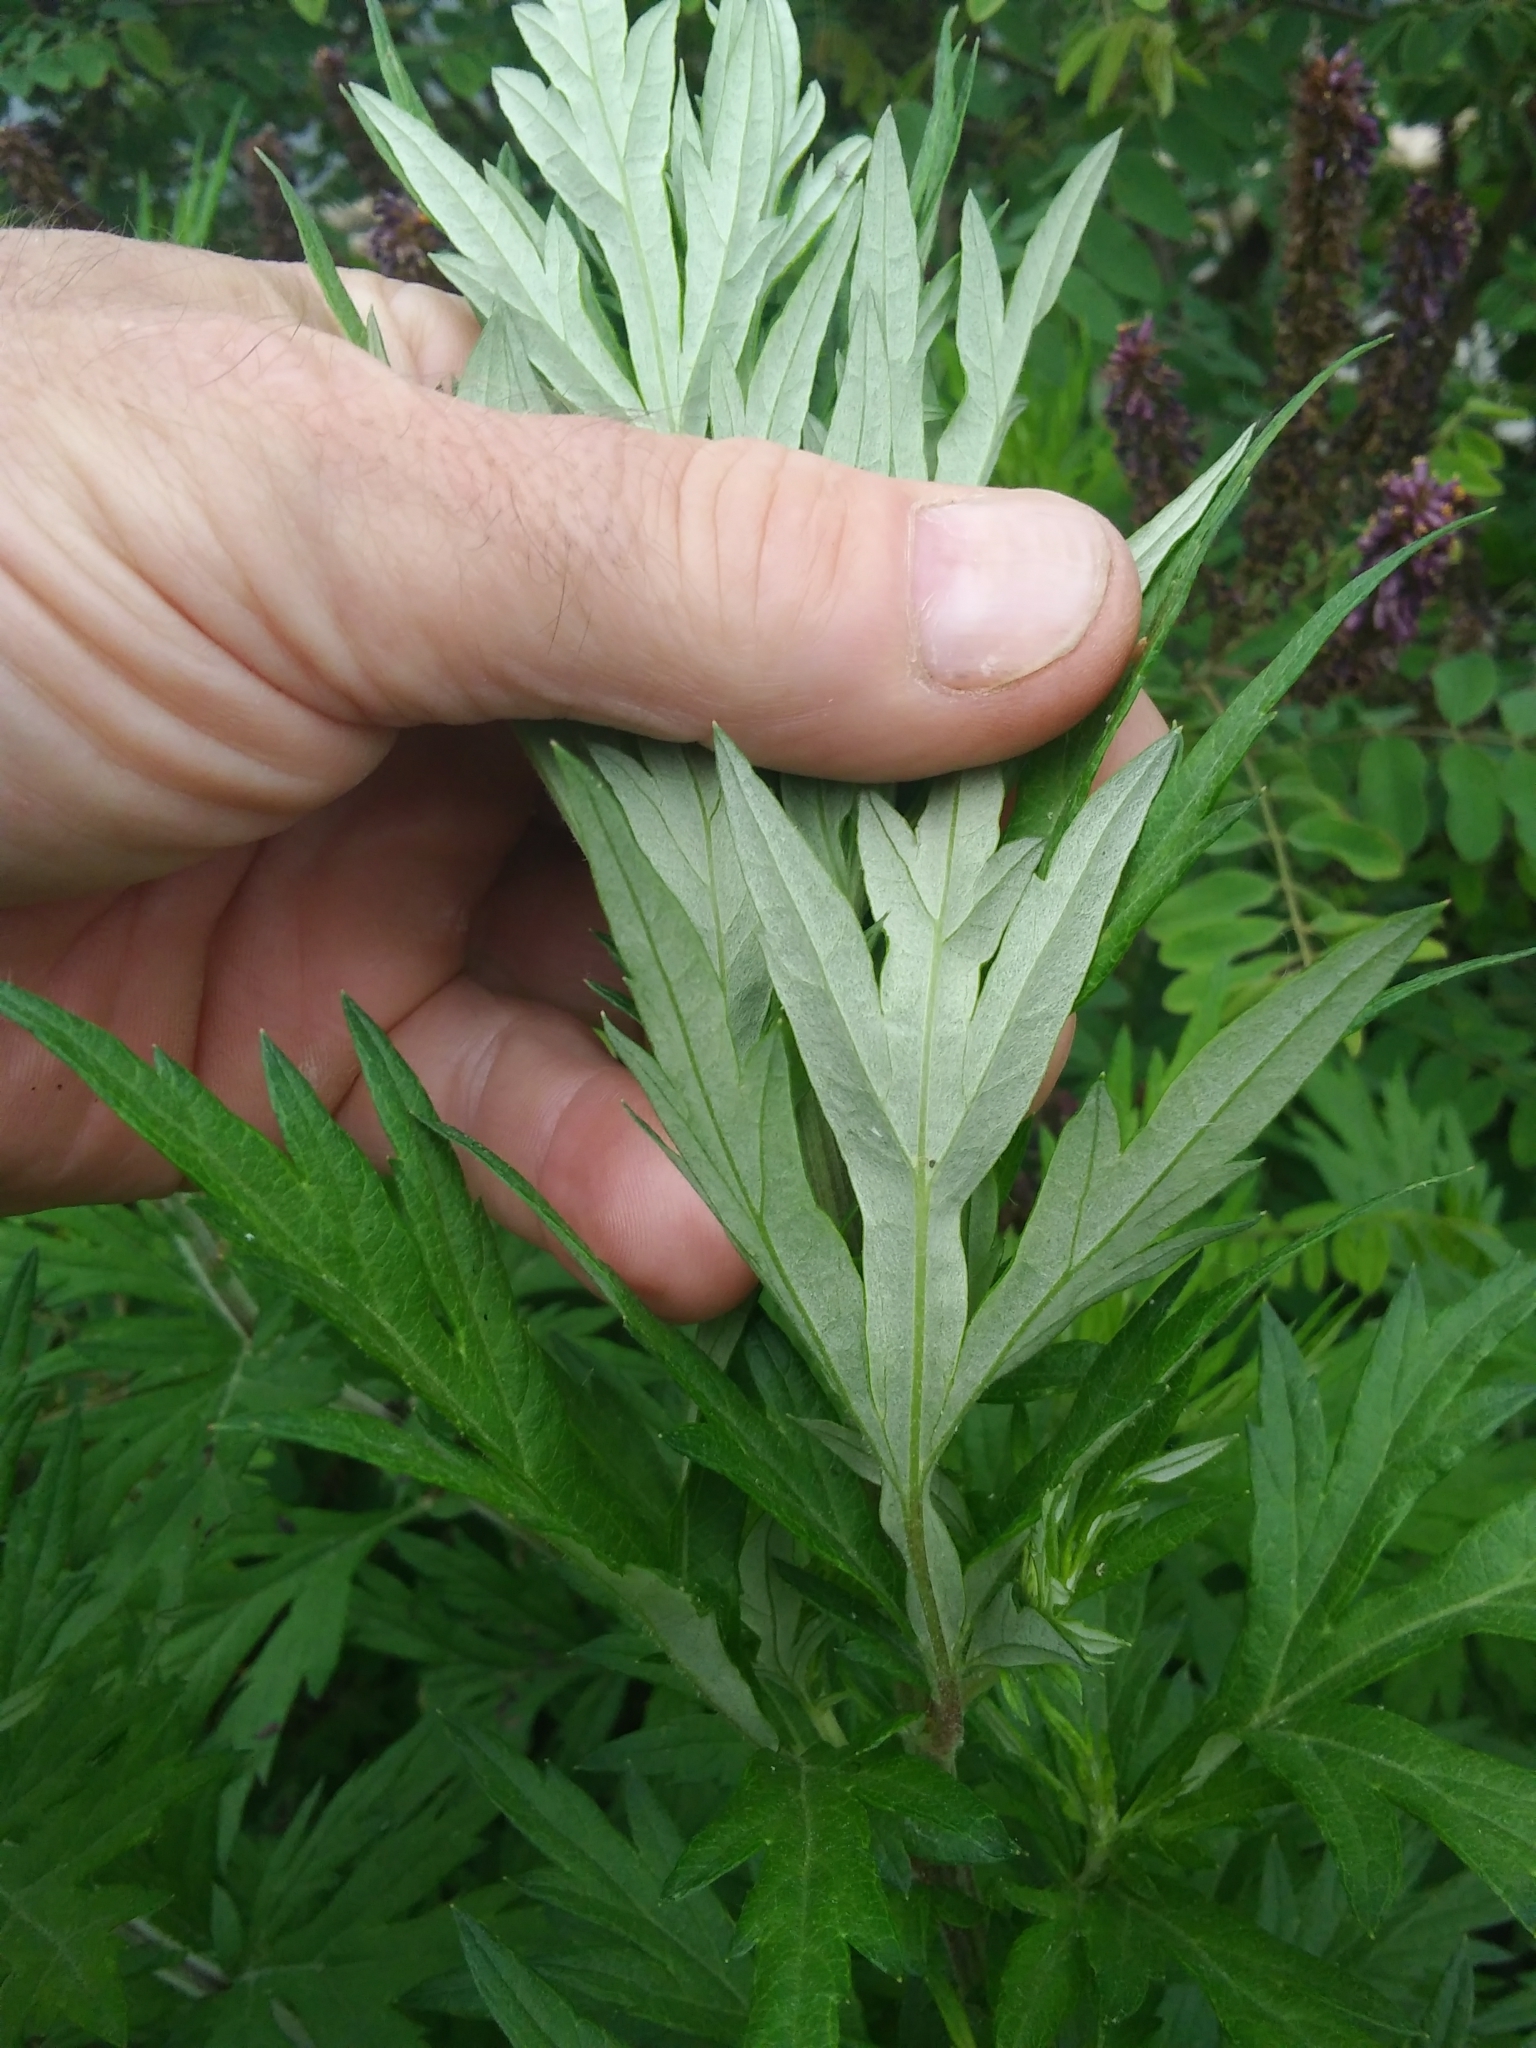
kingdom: Plantae
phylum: Tracheophyta
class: Magnoliopsida
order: Asterales
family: Asteraceae
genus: Artemisia
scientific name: Artemisia vulgaris
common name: Mugwort
